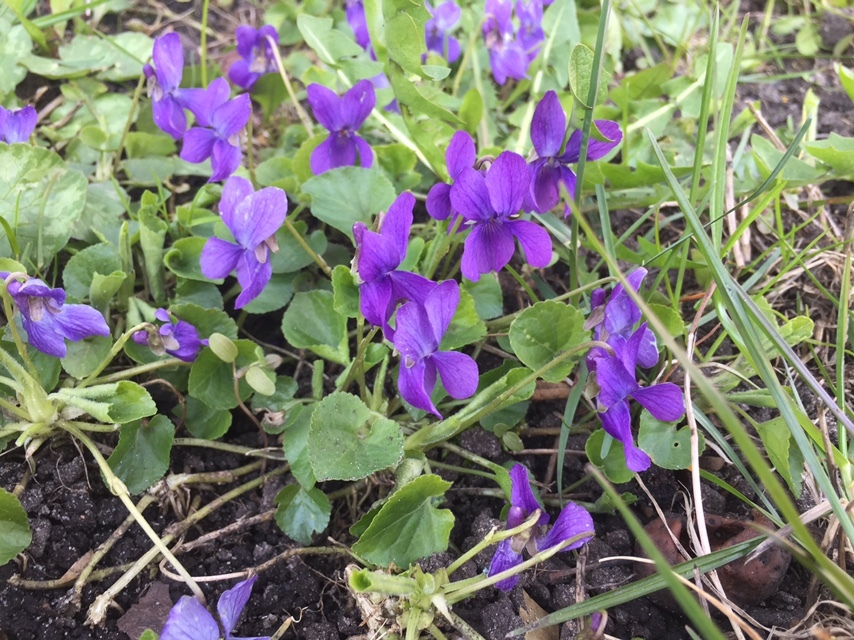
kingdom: Plantae
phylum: Tracheophyta
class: Magnoliopsida
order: Malpighiales
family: Violaceae
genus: Viola
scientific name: Viola odorata
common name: Sweet violet
